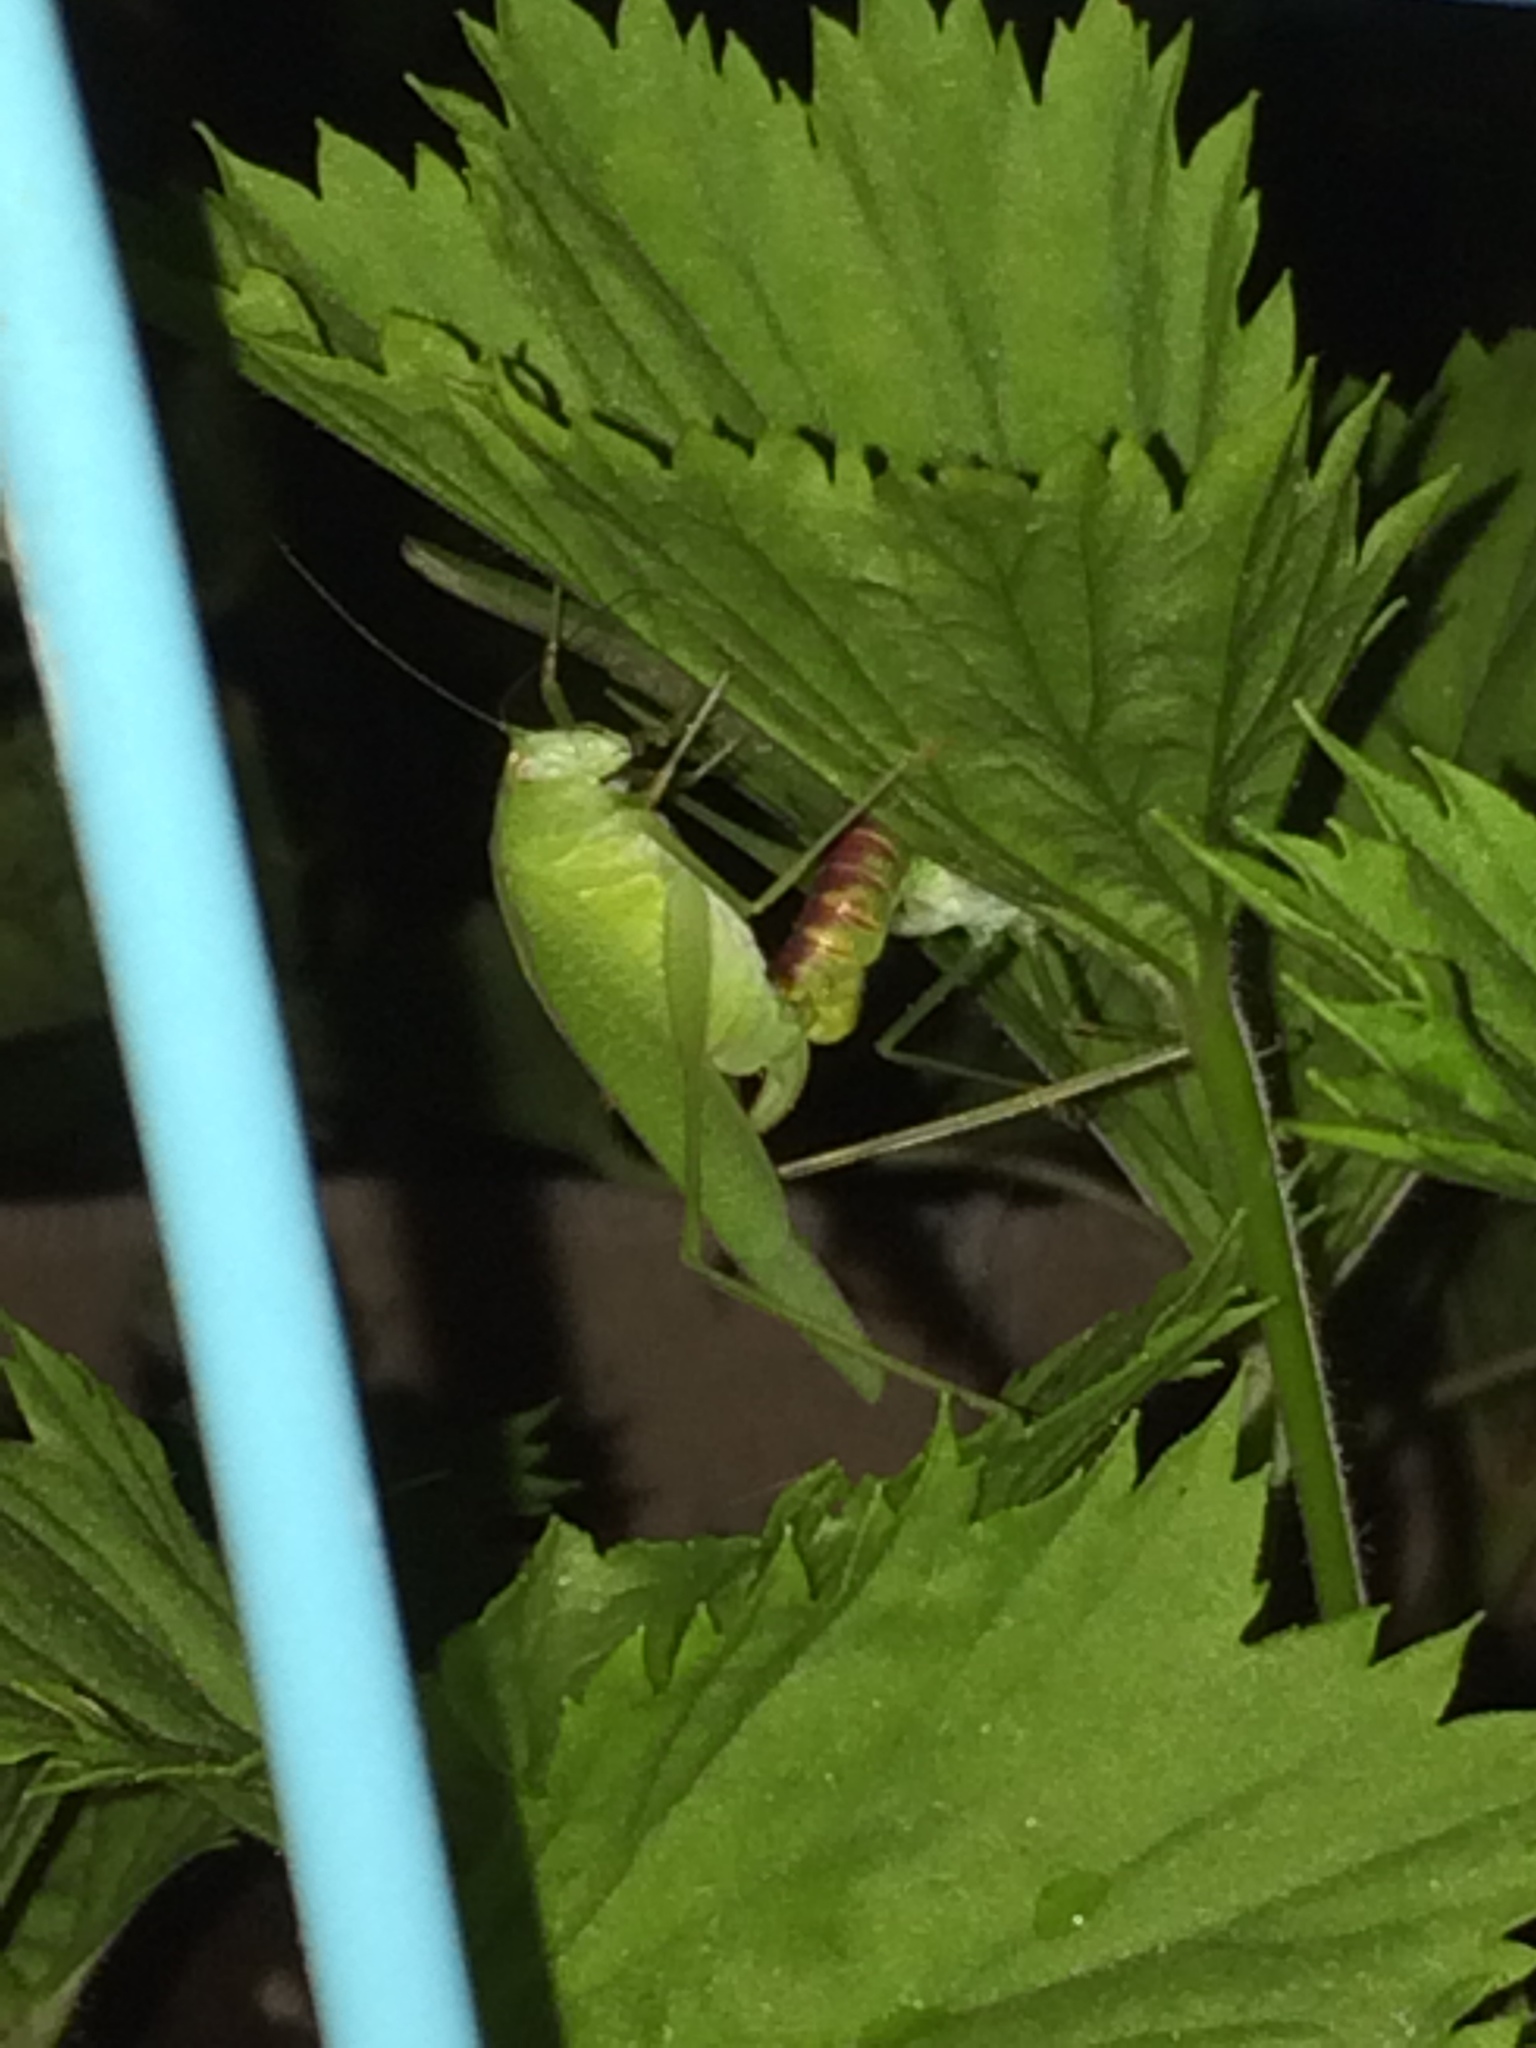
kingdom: Animalia
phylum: Arthropoda
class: Insecta
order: Orthoptera
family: Tettigoniidae
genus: Phaneroptera
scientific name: Phaneroptera nana
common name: Southern sickle bush-cricket
